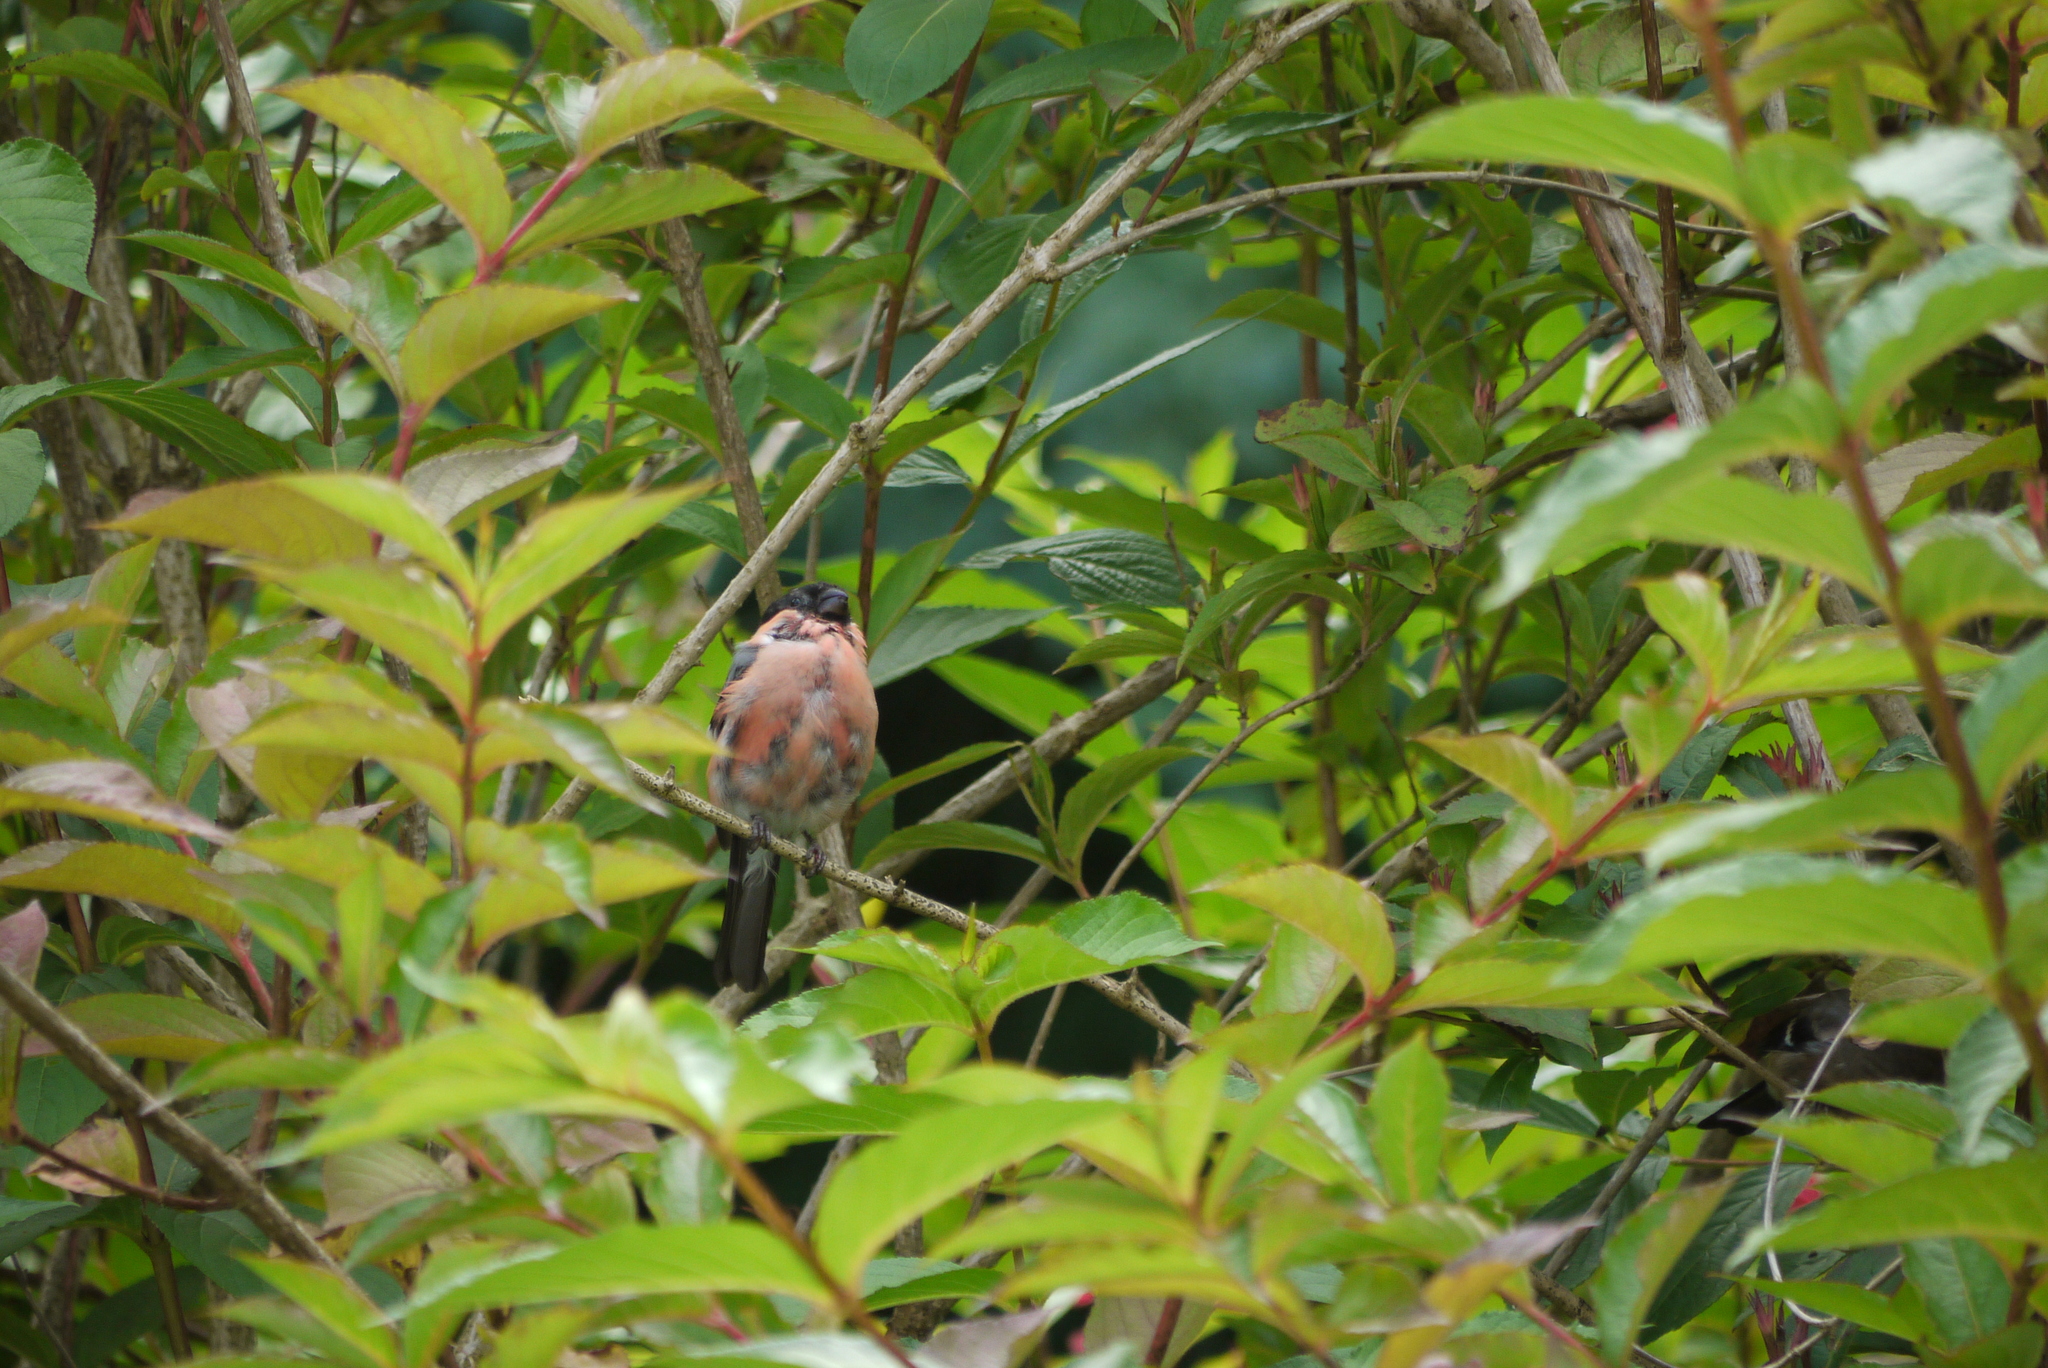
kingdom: Animalia
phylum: Chordata
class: Aves
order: Passeriformes
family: Fringillidae
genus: Pyrrhula
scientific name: Pyrrhula pyrrhula
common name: Eurasian bullfinch
